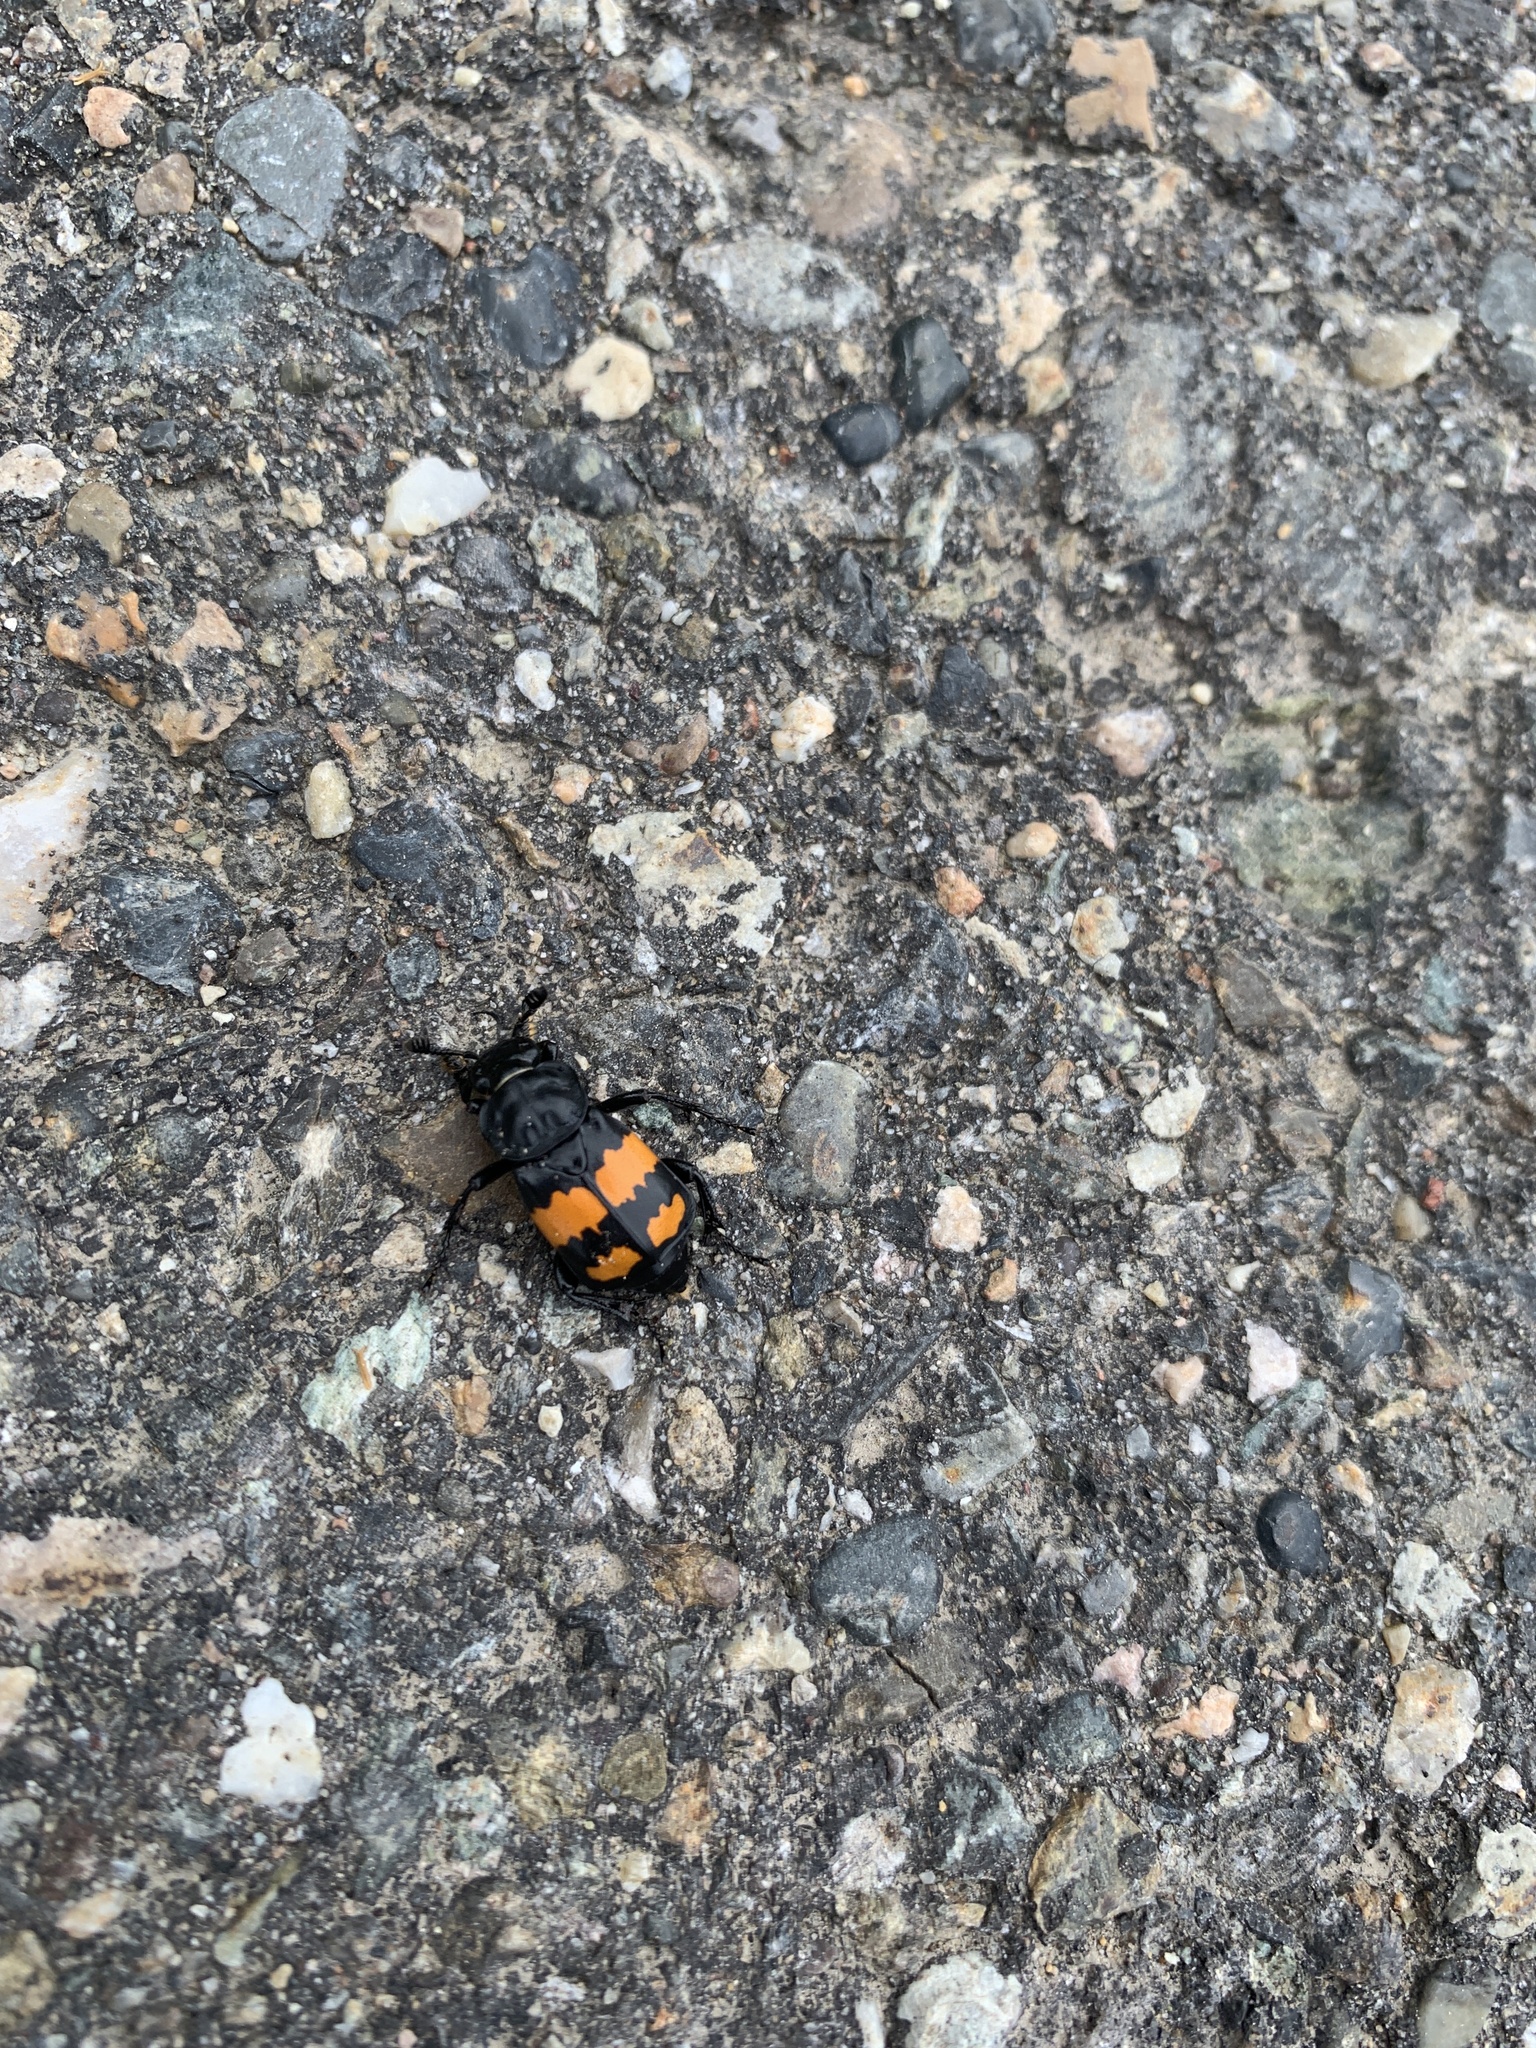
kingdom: Animalia
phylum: Arthropoda
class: Insecta
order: Coleoptera
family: Staphylinidae
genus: Nicrophorus
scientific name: Nicrophorus defodiens
